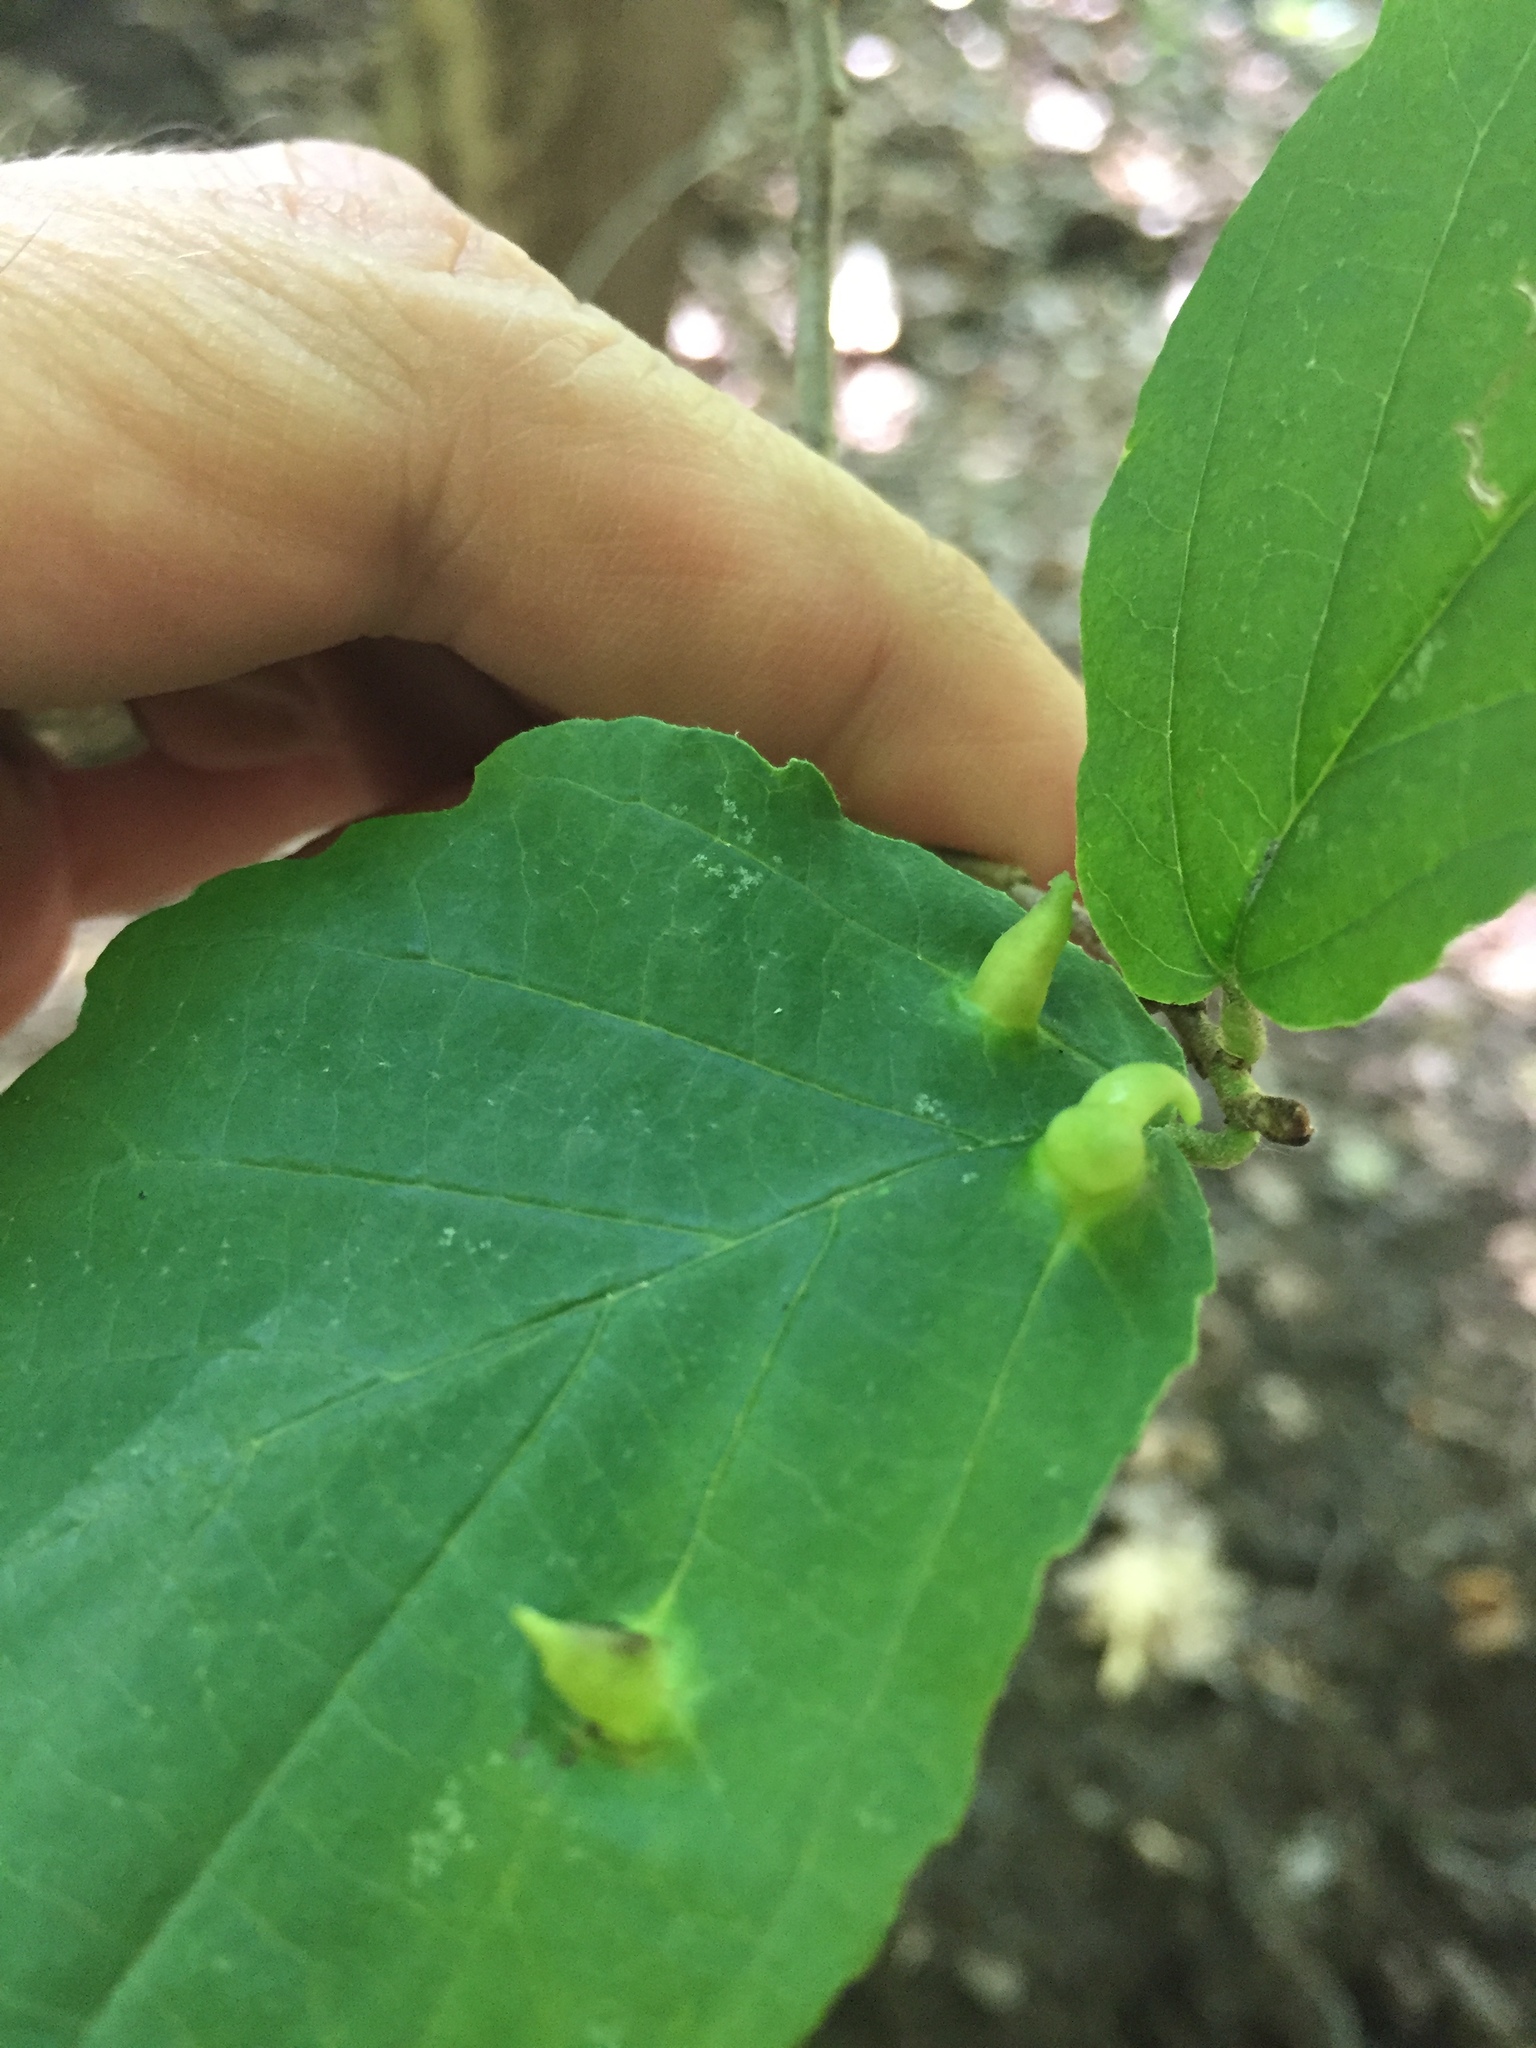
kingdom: Animalia
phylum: Arthropoda
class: Insecta
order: Hemiptera
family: Aphididae
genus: Hormaphis
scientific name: Hormaphis hamamelidis
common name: Witch-hazel cone gall aphid
